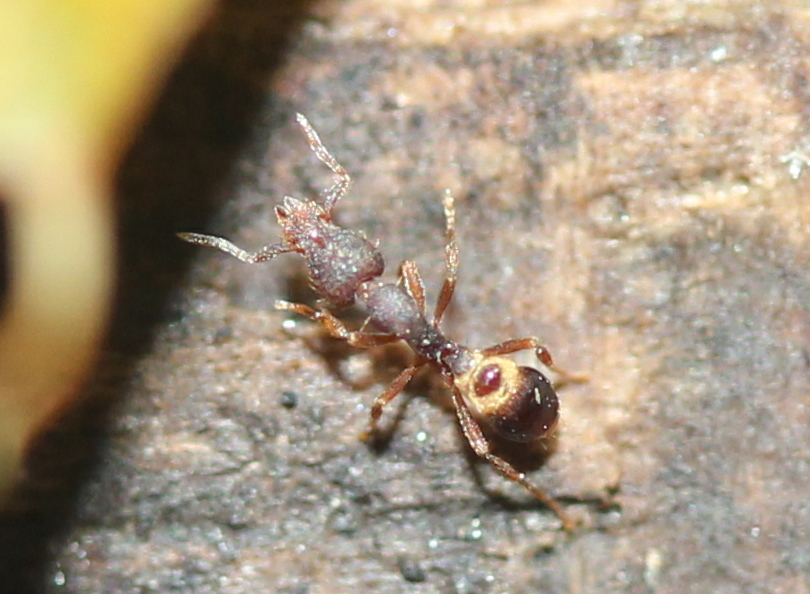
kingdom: Animalia
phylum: Arthropoda
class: Insecta
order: Hymenoptera
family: Formicidae
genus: Pyramica
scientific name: Pyramica rostrata
